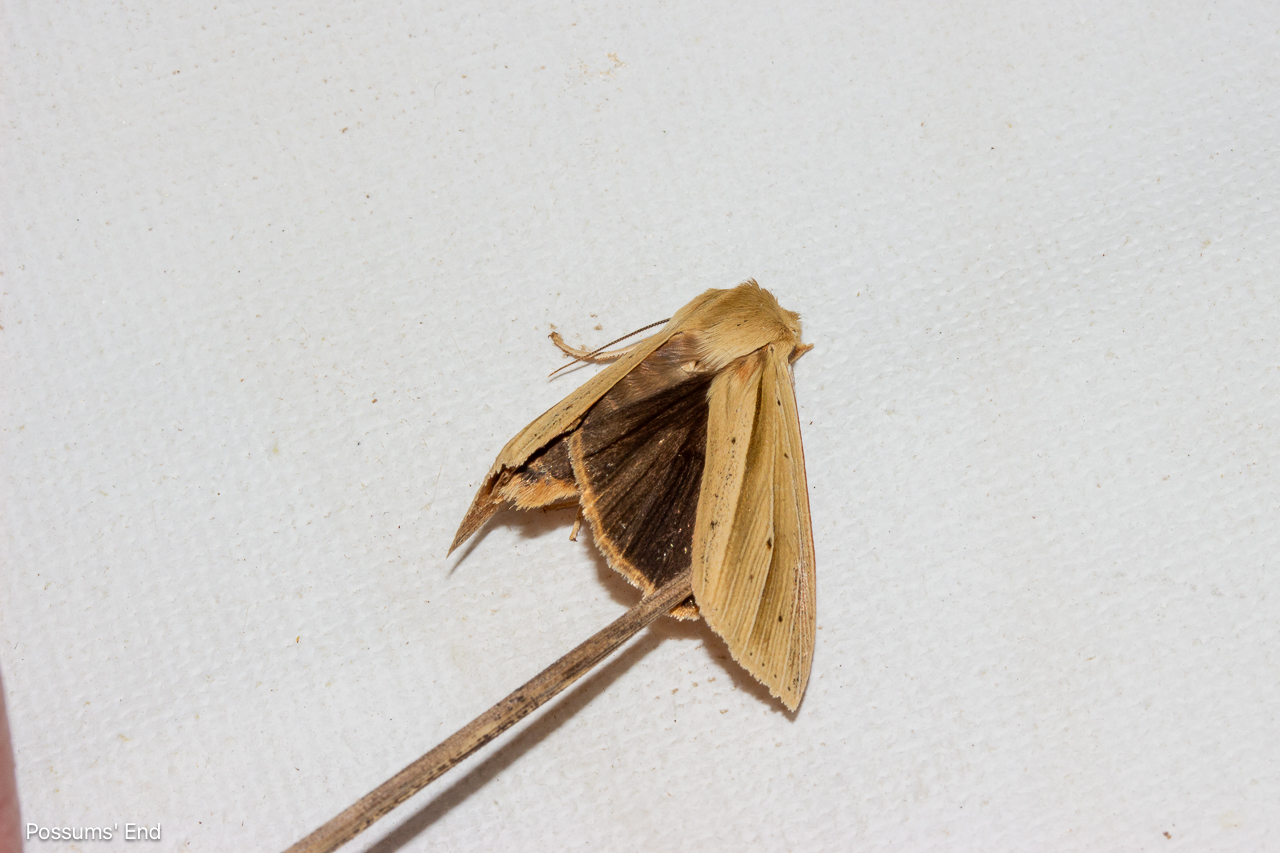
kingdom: Animalia
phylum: Arthropoda
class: Insecta
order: Lepidoptera
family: Noctuidae
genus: Ichneutica
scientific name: Ichneutica sulcana
